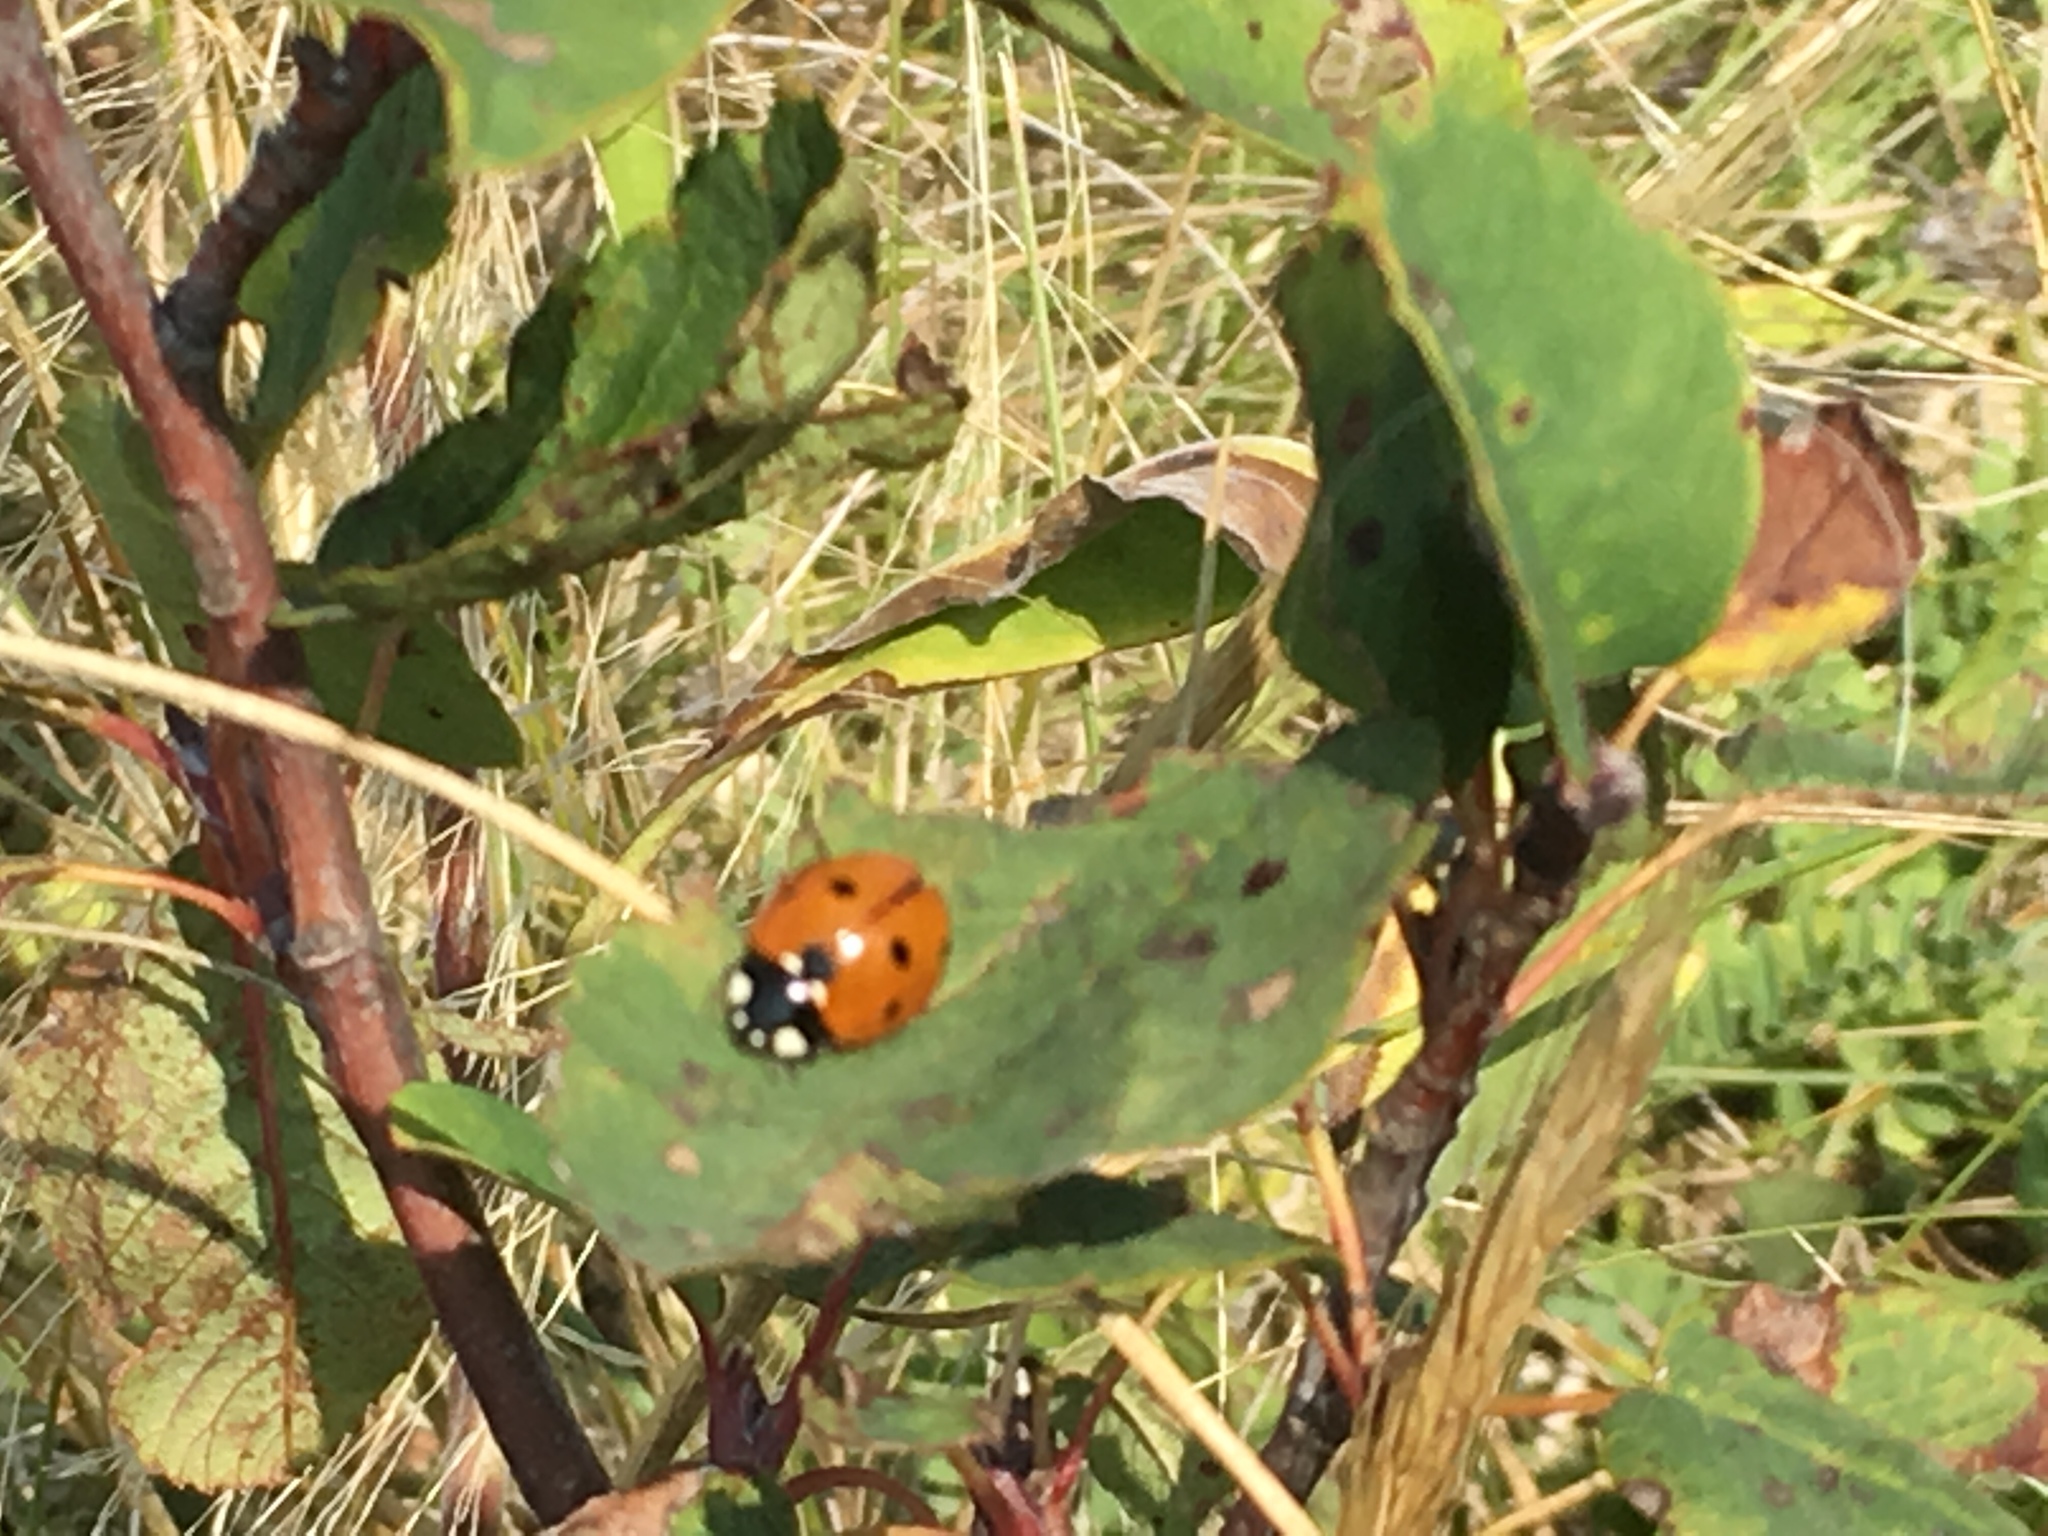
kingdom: Animalia
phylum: Arthropoda
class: Insecta
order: Coleoptera
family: Coccinellidae
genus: Coccinella
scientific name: Coccinella septempunctata
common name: Sevenspotted lady beetle
